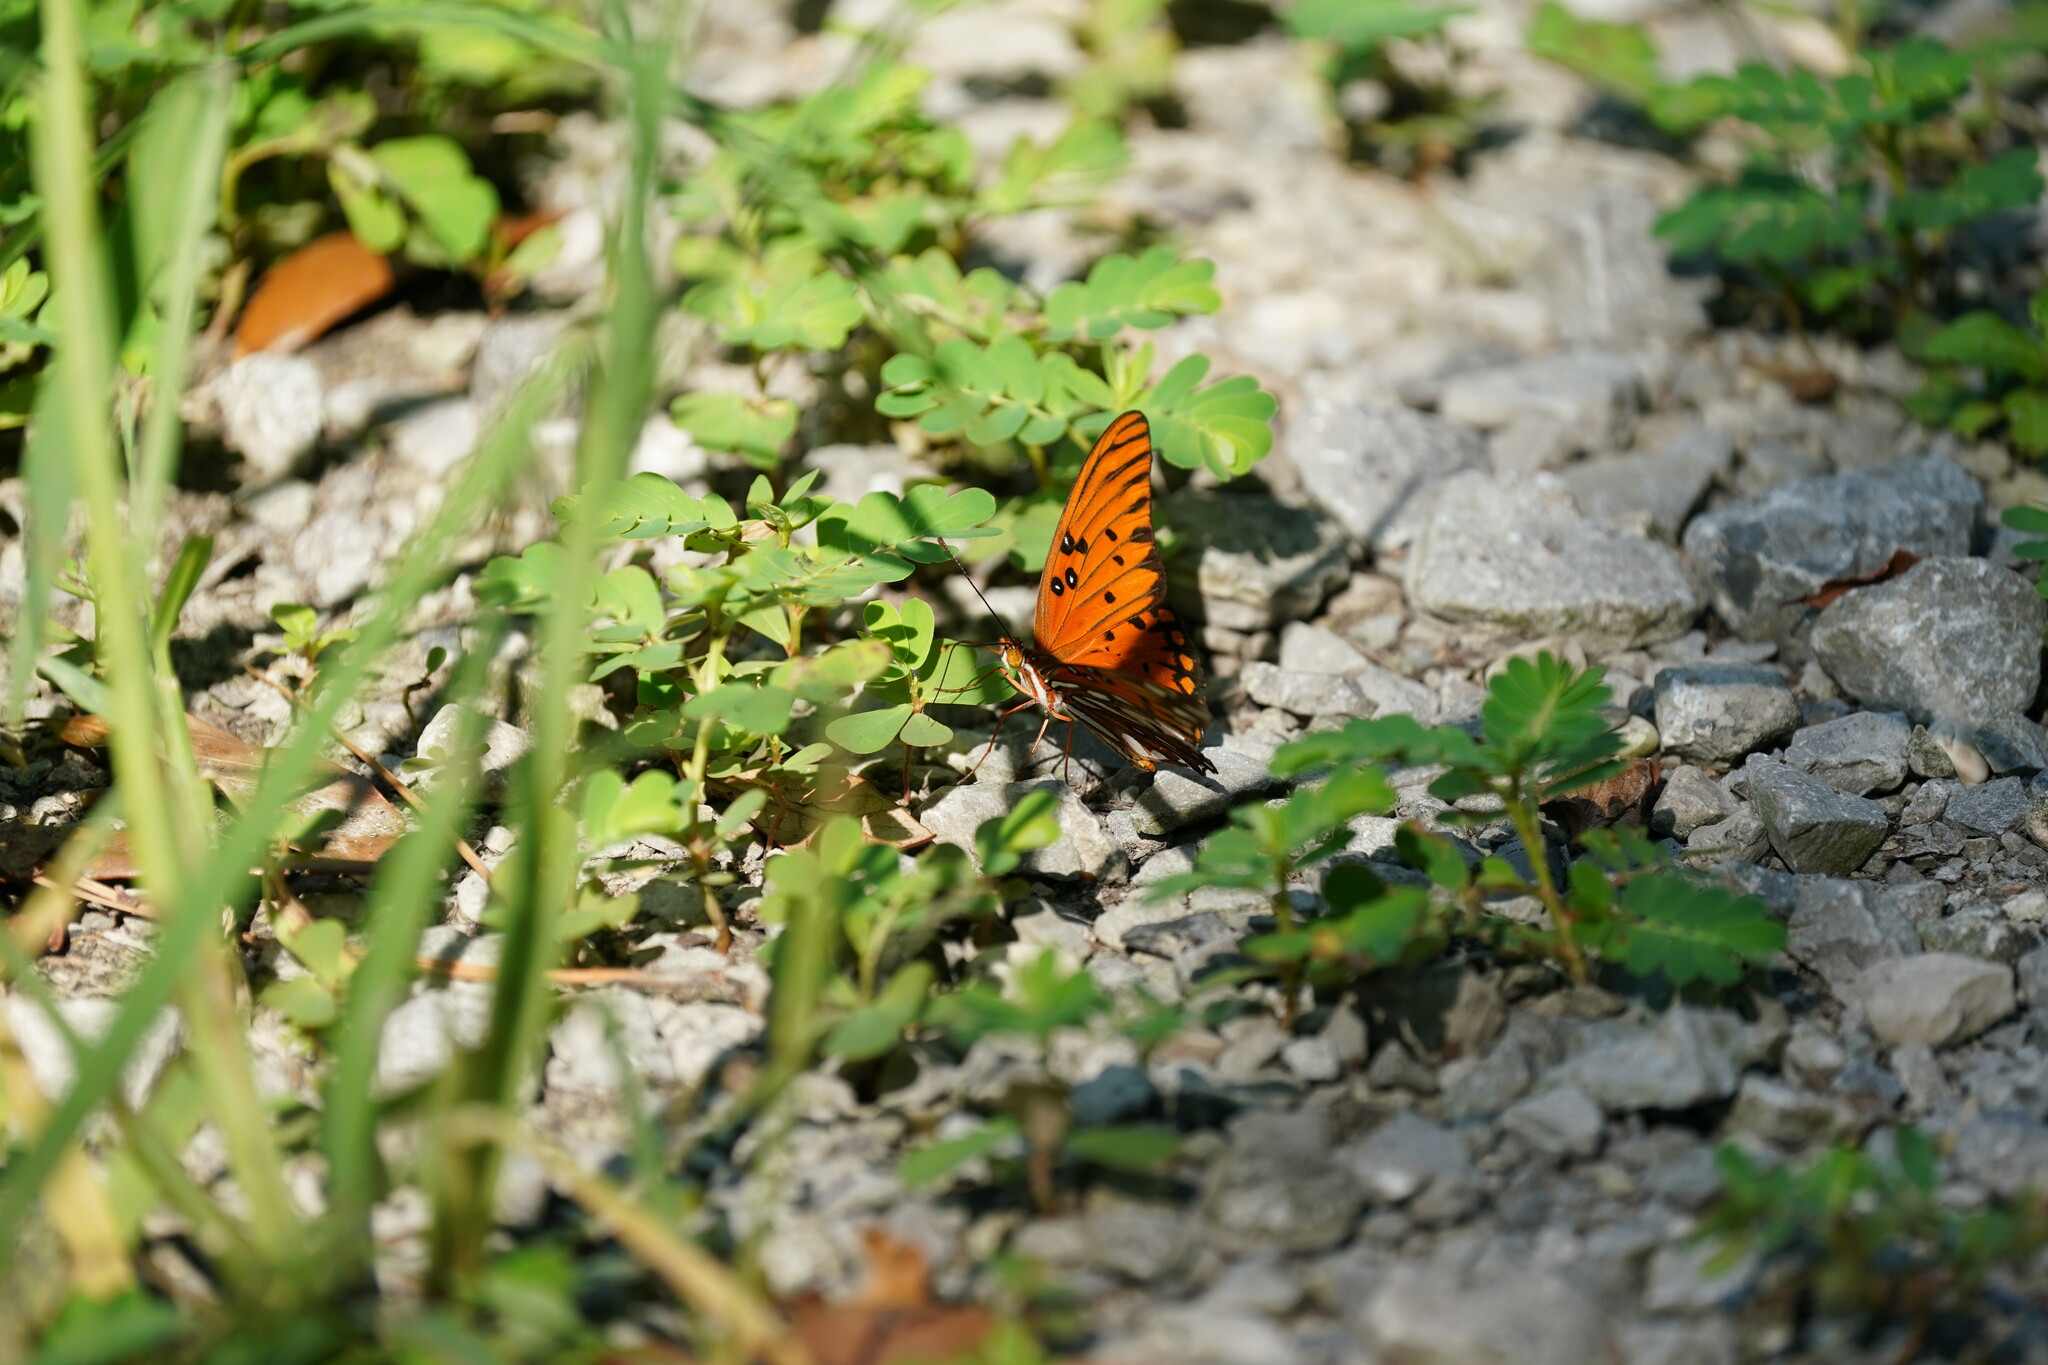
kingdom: Animalia
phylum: Arthropoda
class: Insecta
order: Lepidoptera
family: Nymphalidae
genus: Dione
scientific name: Dione vanillae
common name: Gulf fritillary
